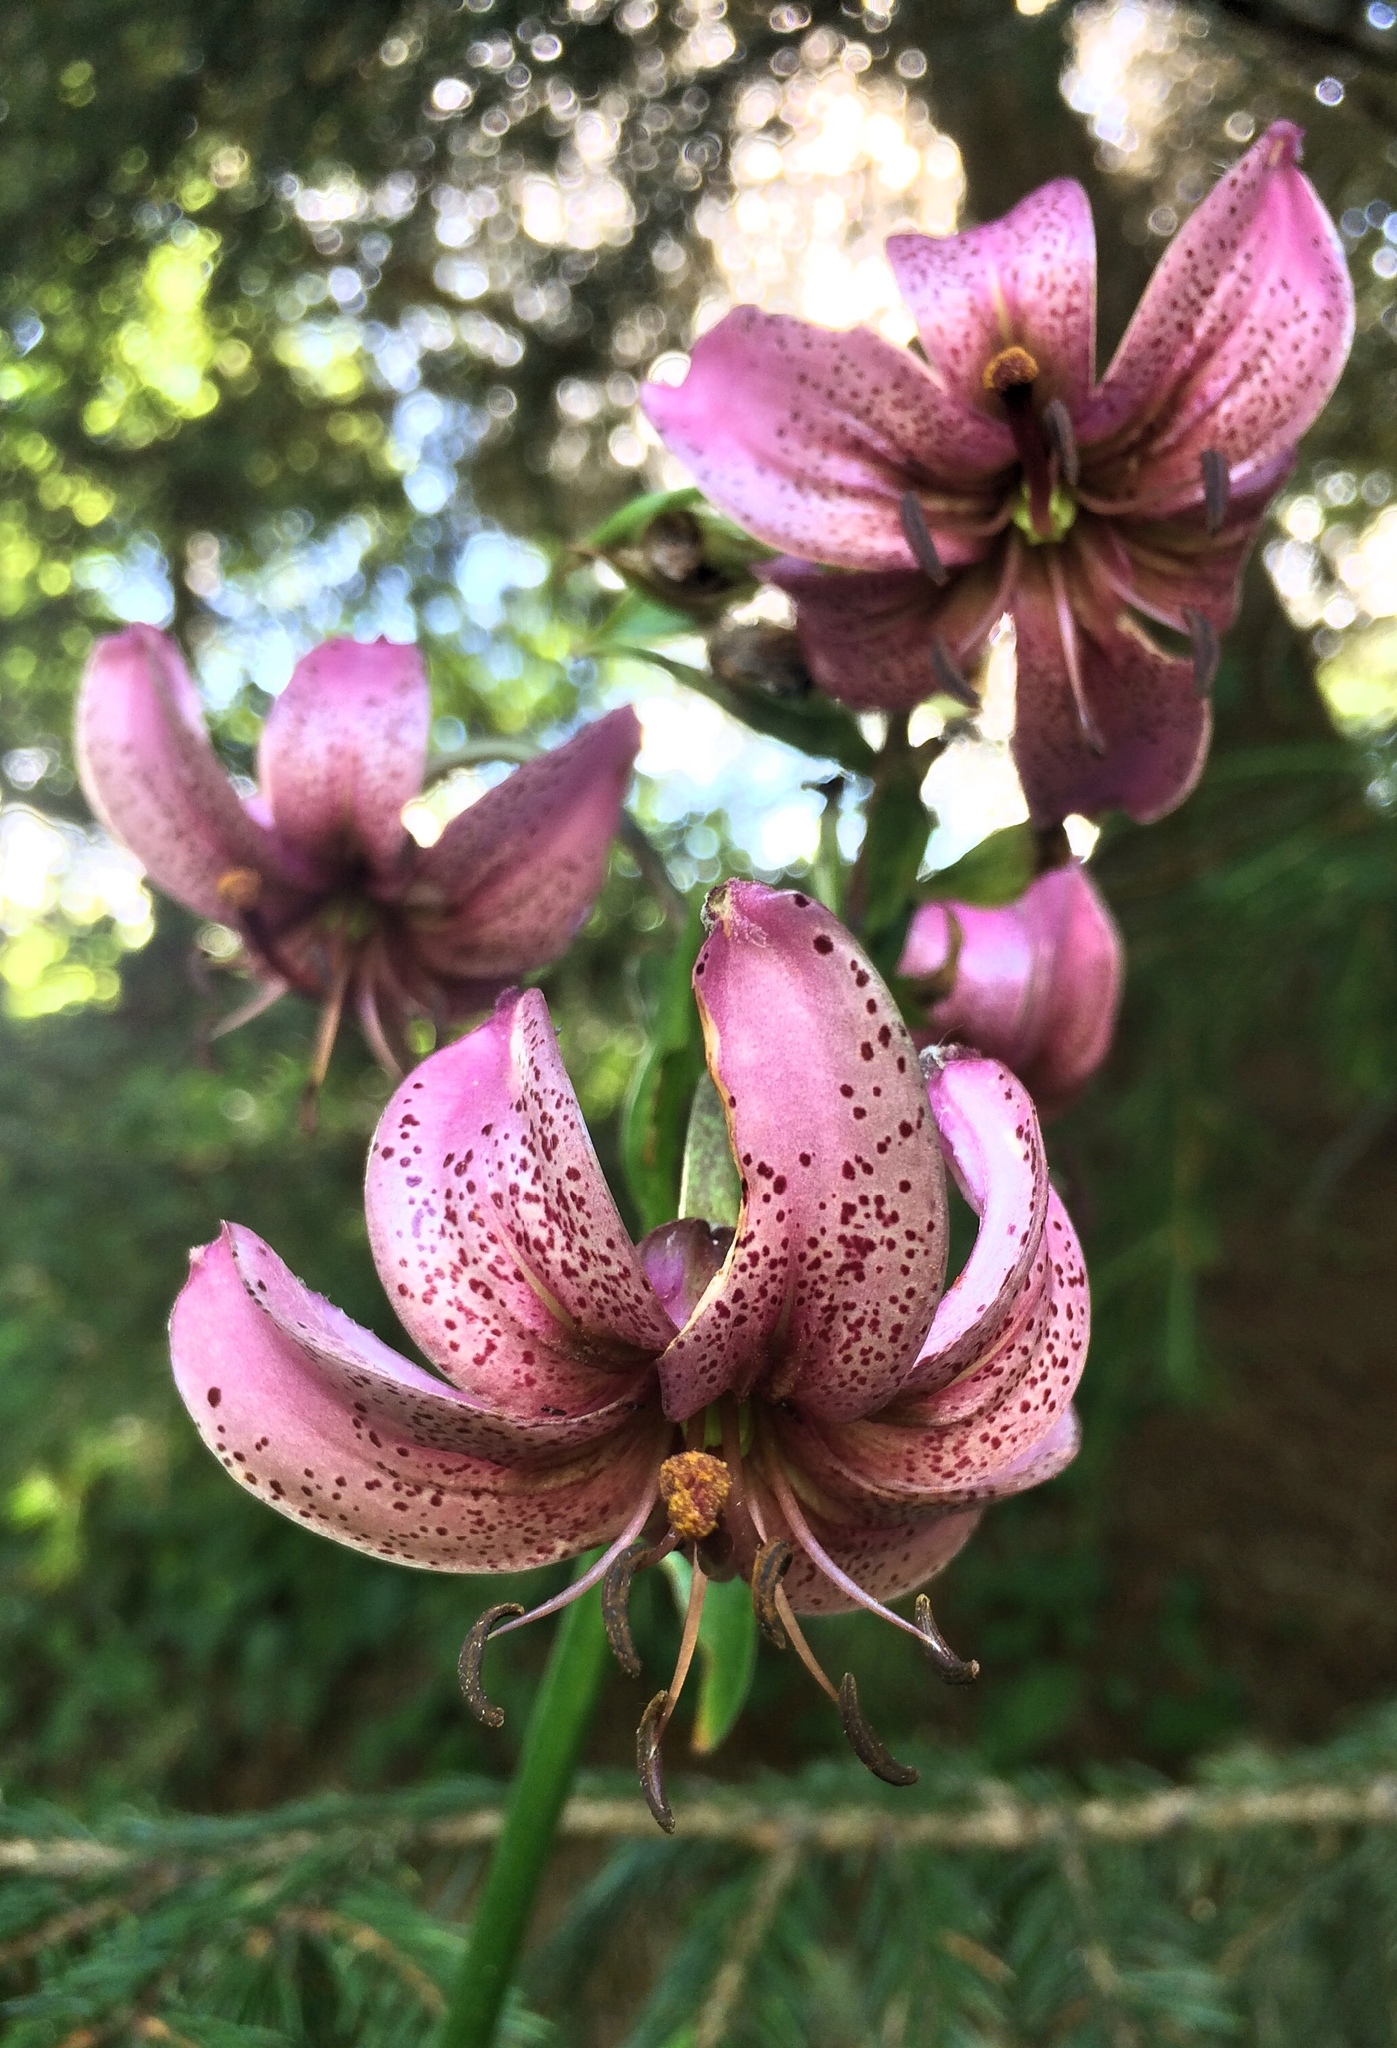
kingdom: Plantae
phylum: Tracheophyta
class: Liliopsida
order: Liliales
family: Liliaceae
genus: Lilium
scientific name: Lilium martagon
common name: Martagon lily
